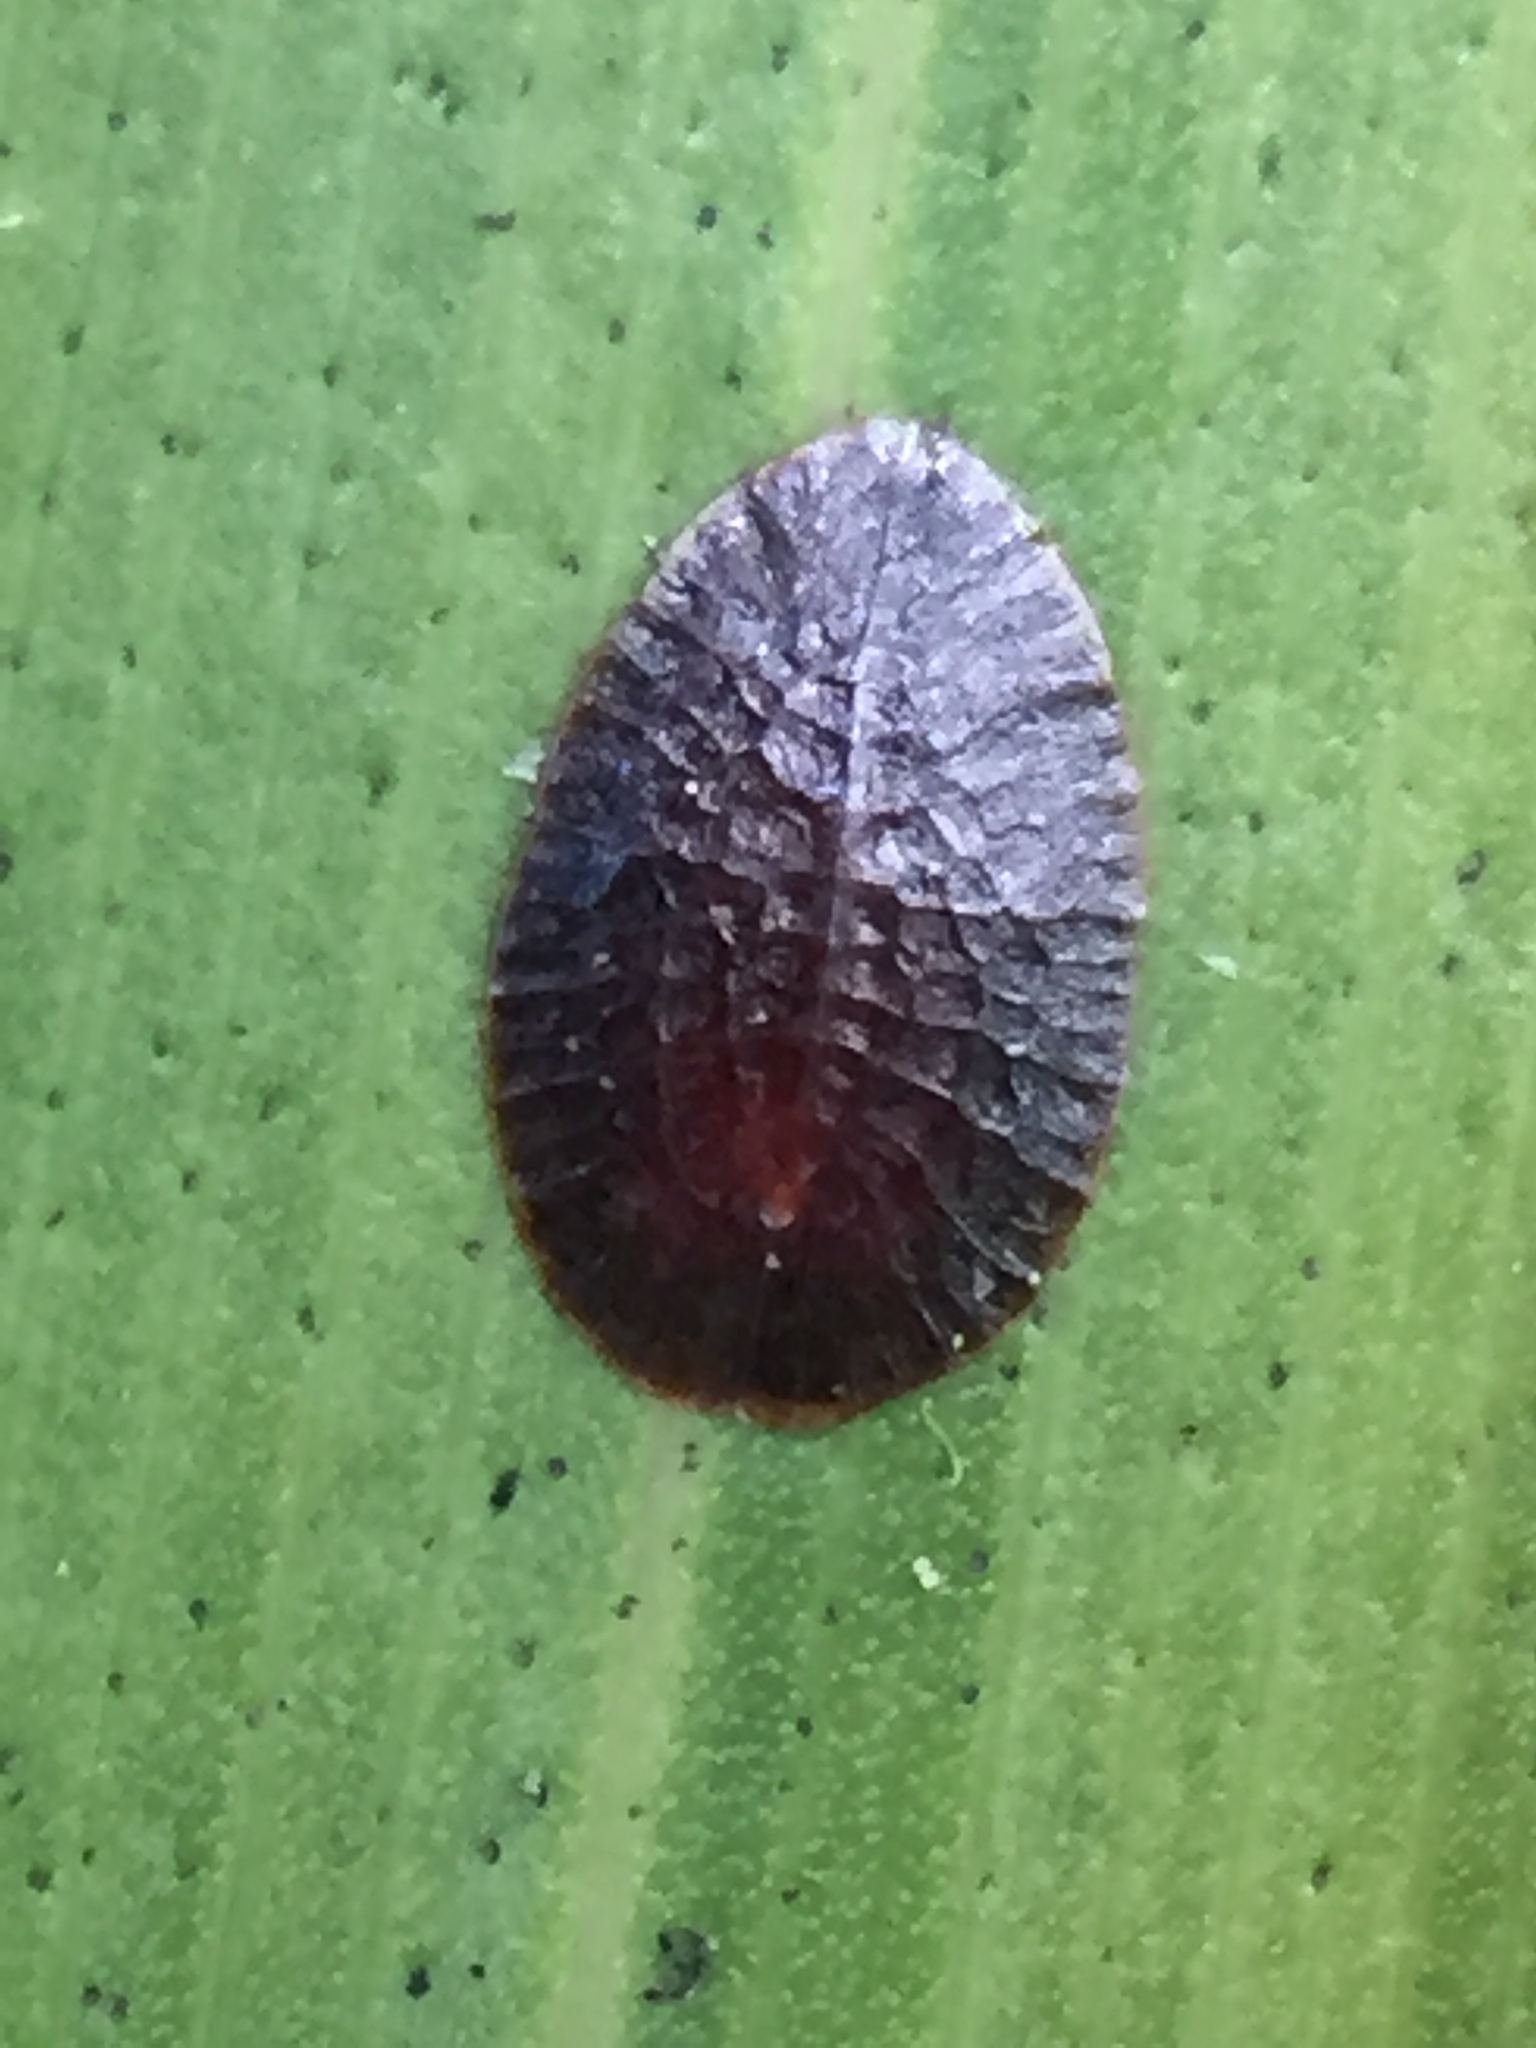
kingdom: Animalia
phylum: Arthropoda
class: Insecta
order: Hemiptera
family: Coccidae
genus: Eucalymnatus
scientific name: Eucalymnatus tessellatus
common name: Tessellated scale
